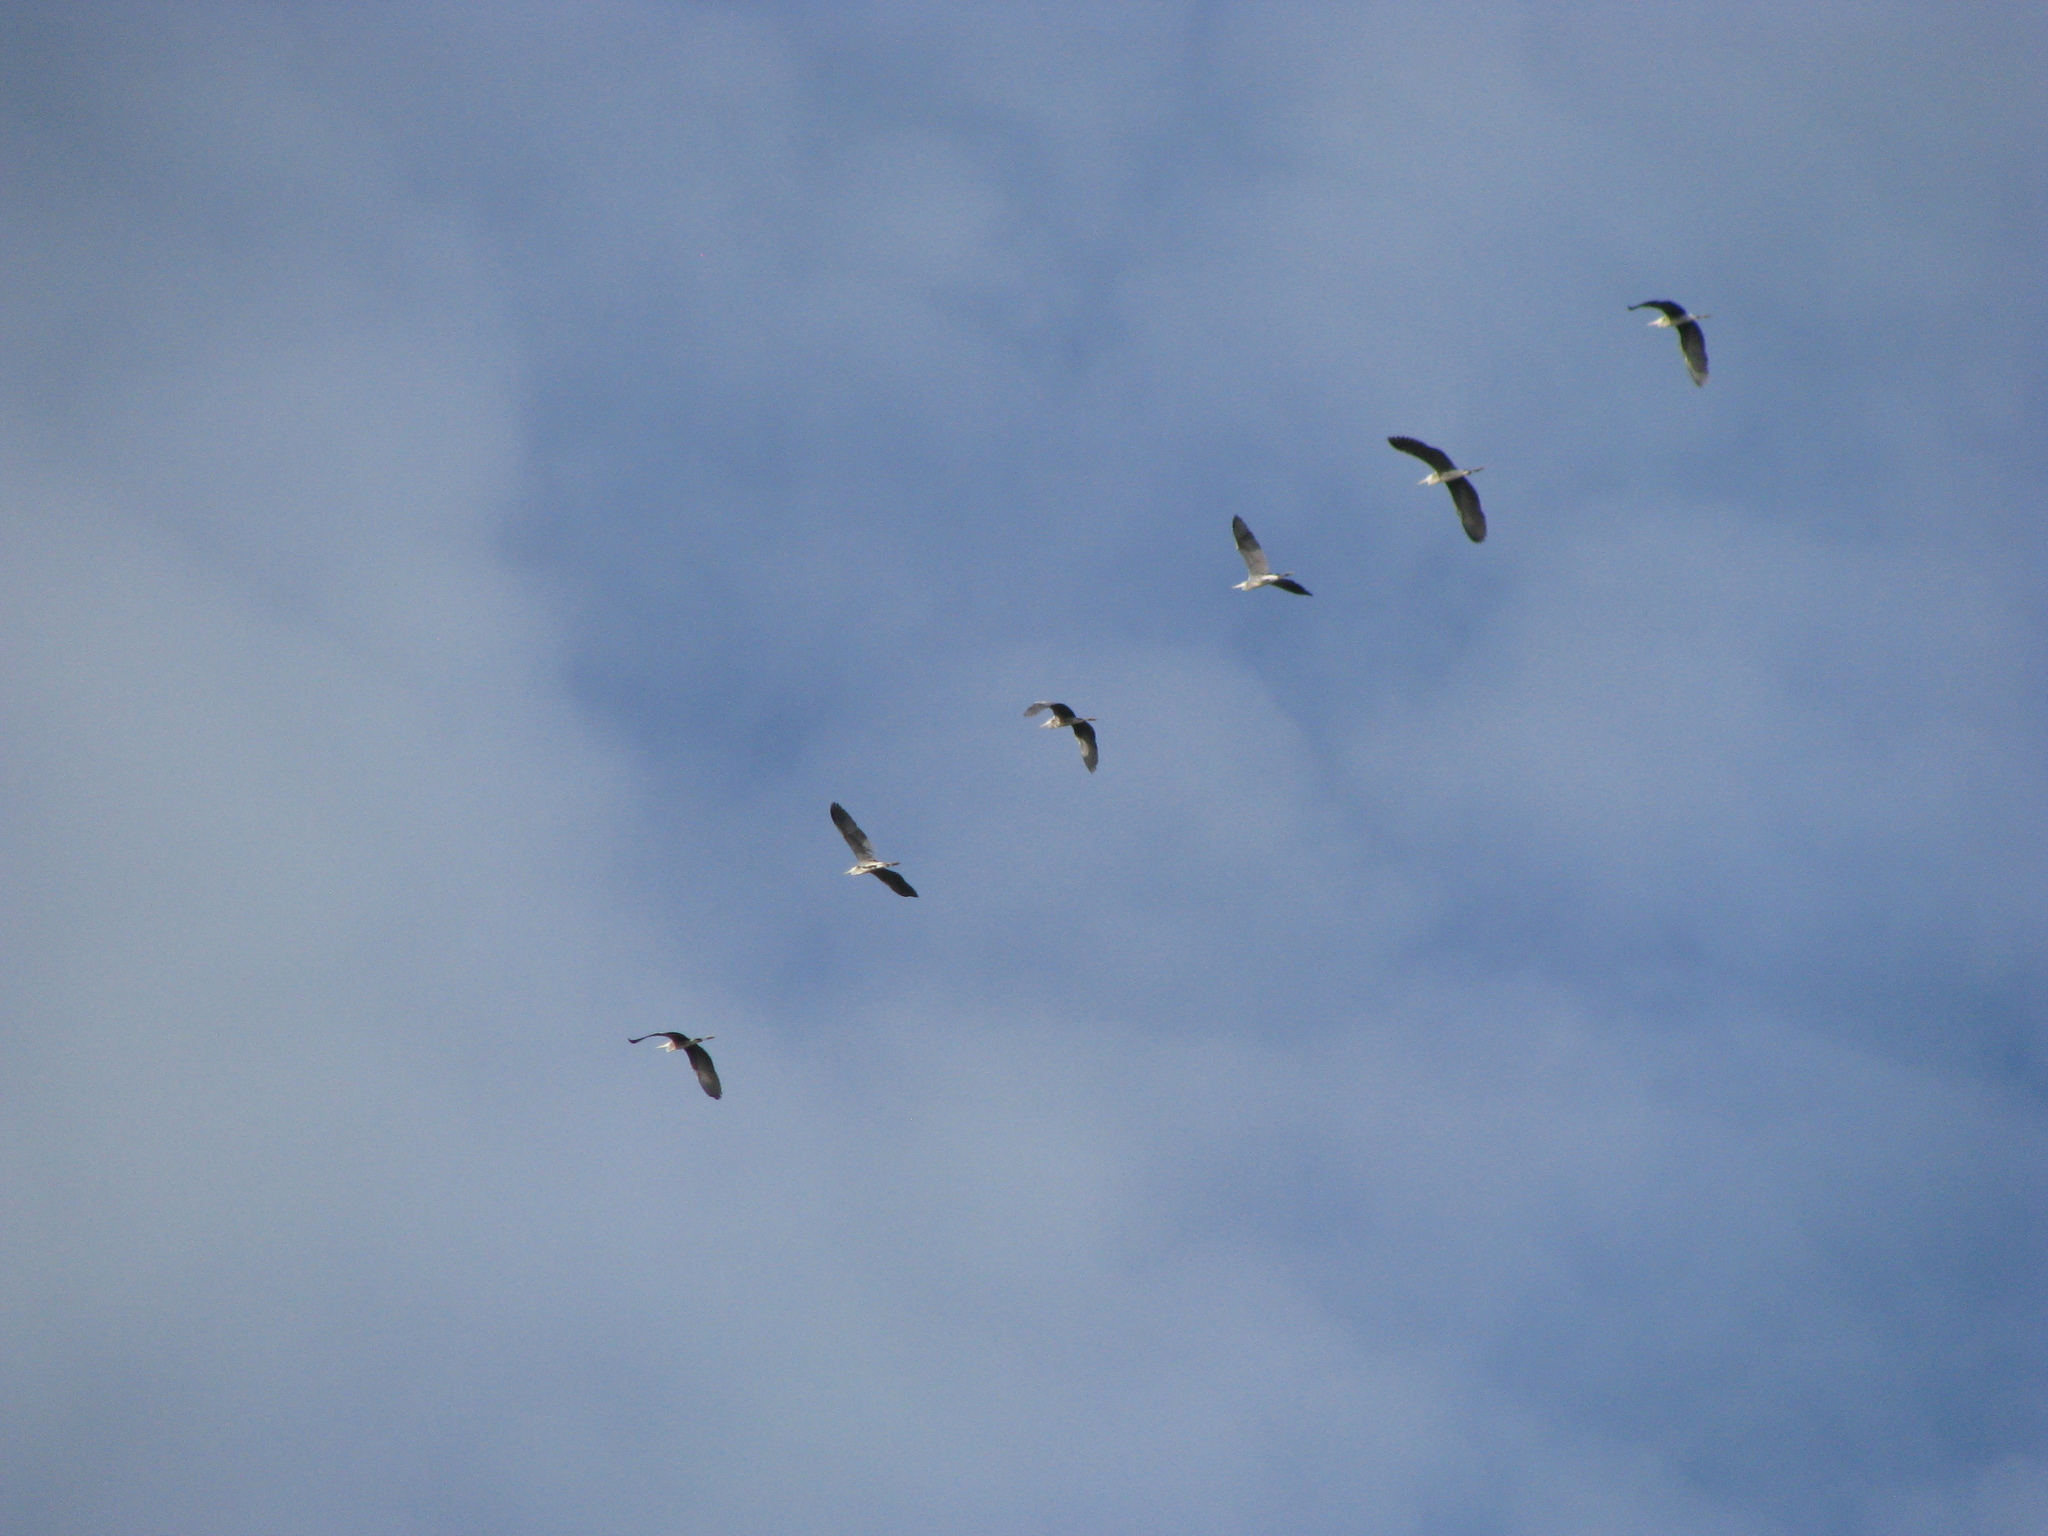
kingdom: Animalia
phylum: Chordata
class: Aves
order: Pelecaniformes
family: Ardeidae
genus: Ardea
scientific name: Ardea cinerea
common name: Grey heron
